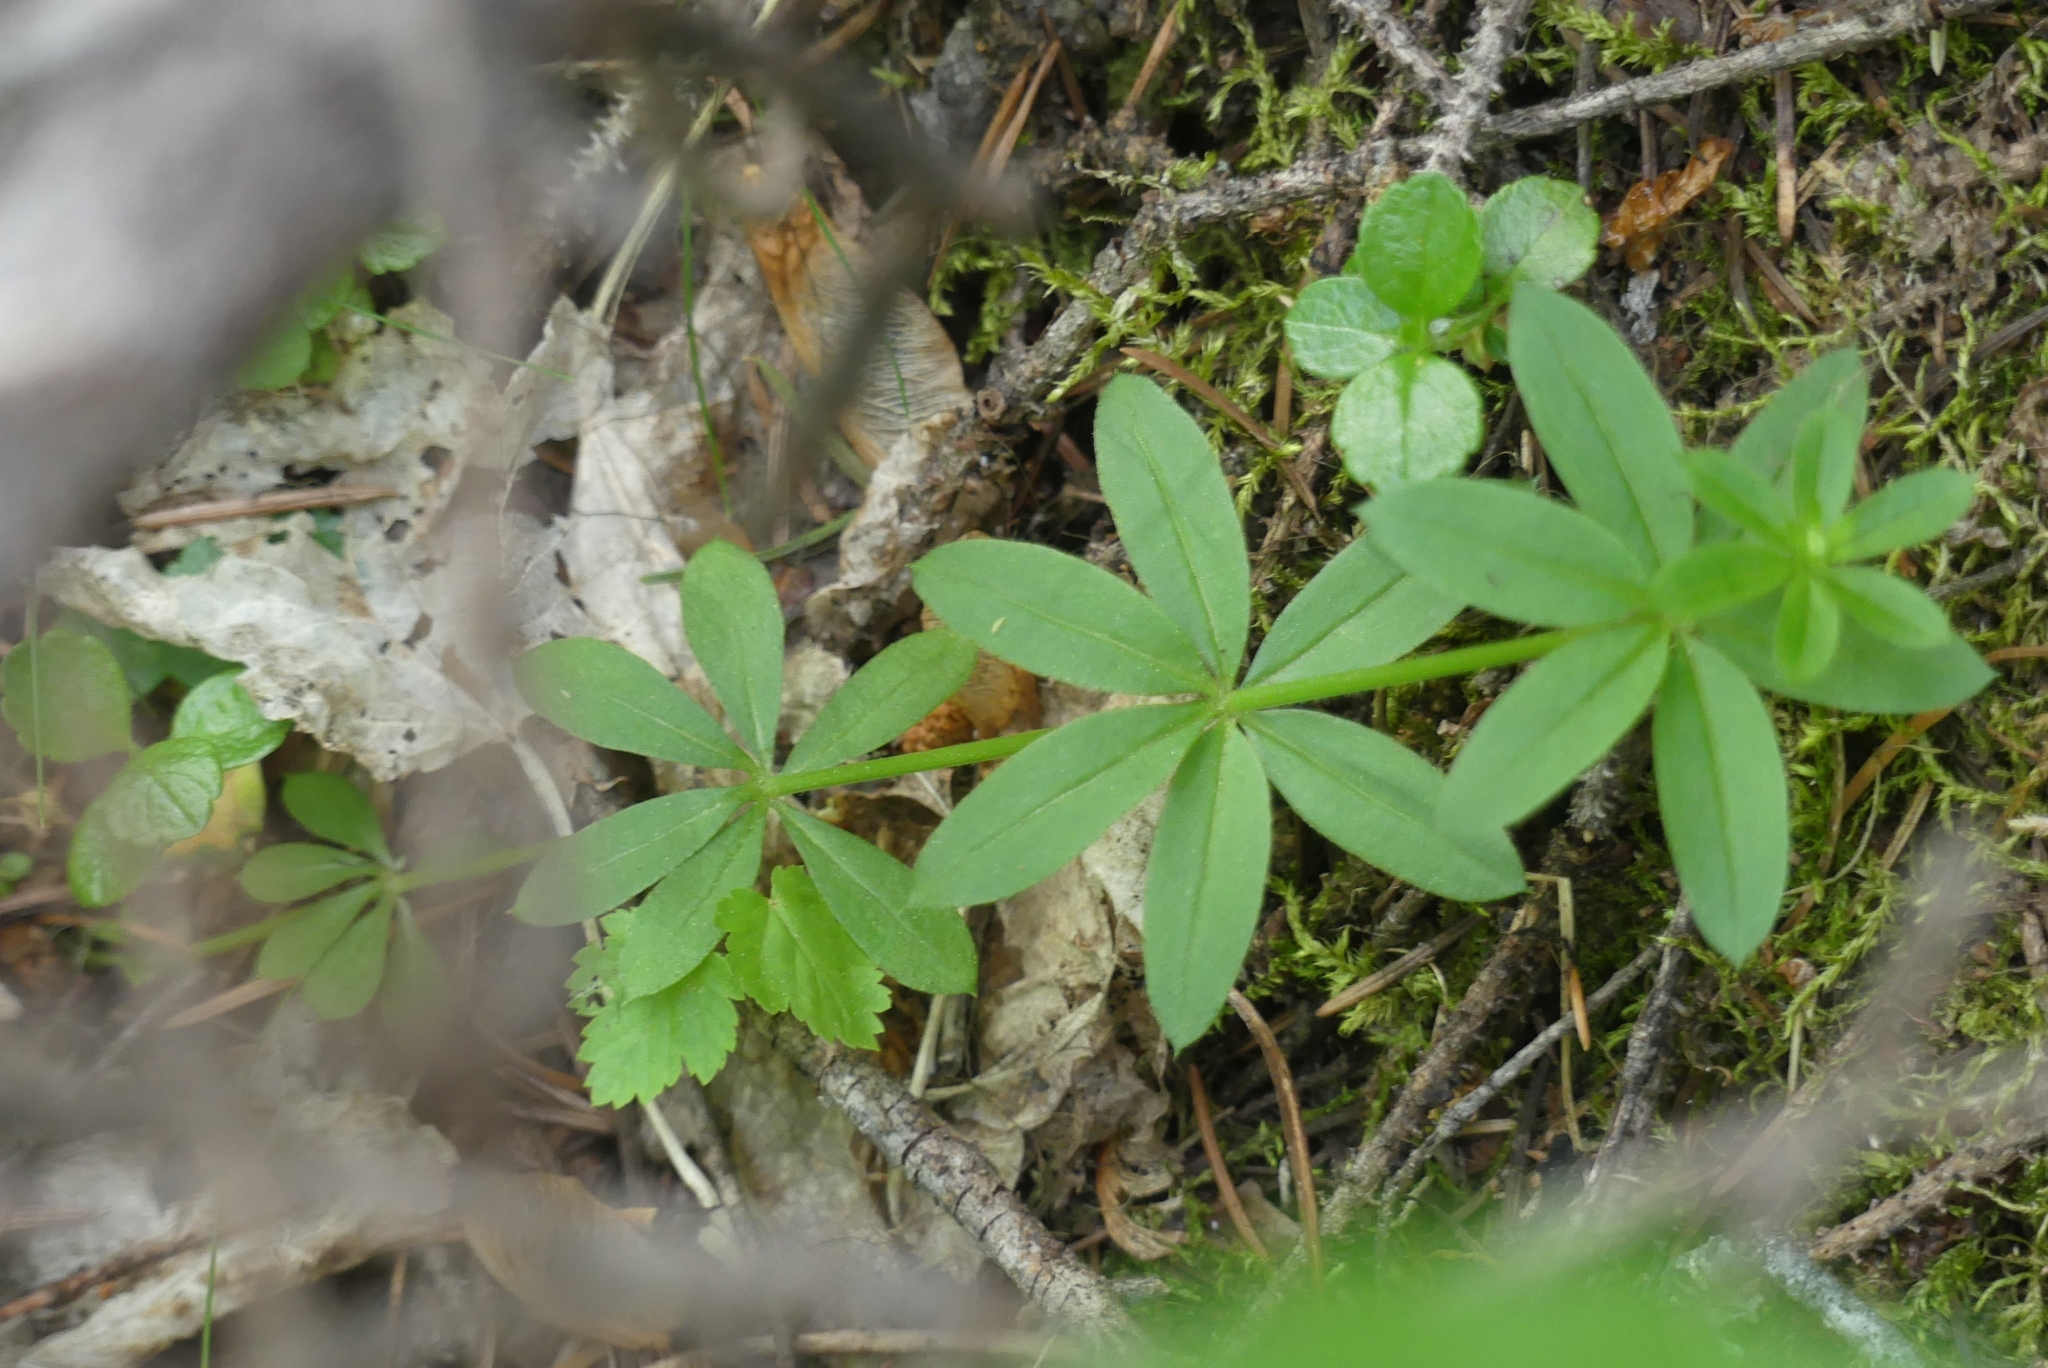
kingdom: Plantae
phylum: Tracheophyta
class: Magnoliopsida
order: Gentianales
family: Rubiaceae
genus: Galium
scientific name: Galium triflorum
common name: Fragrant bedstraw
